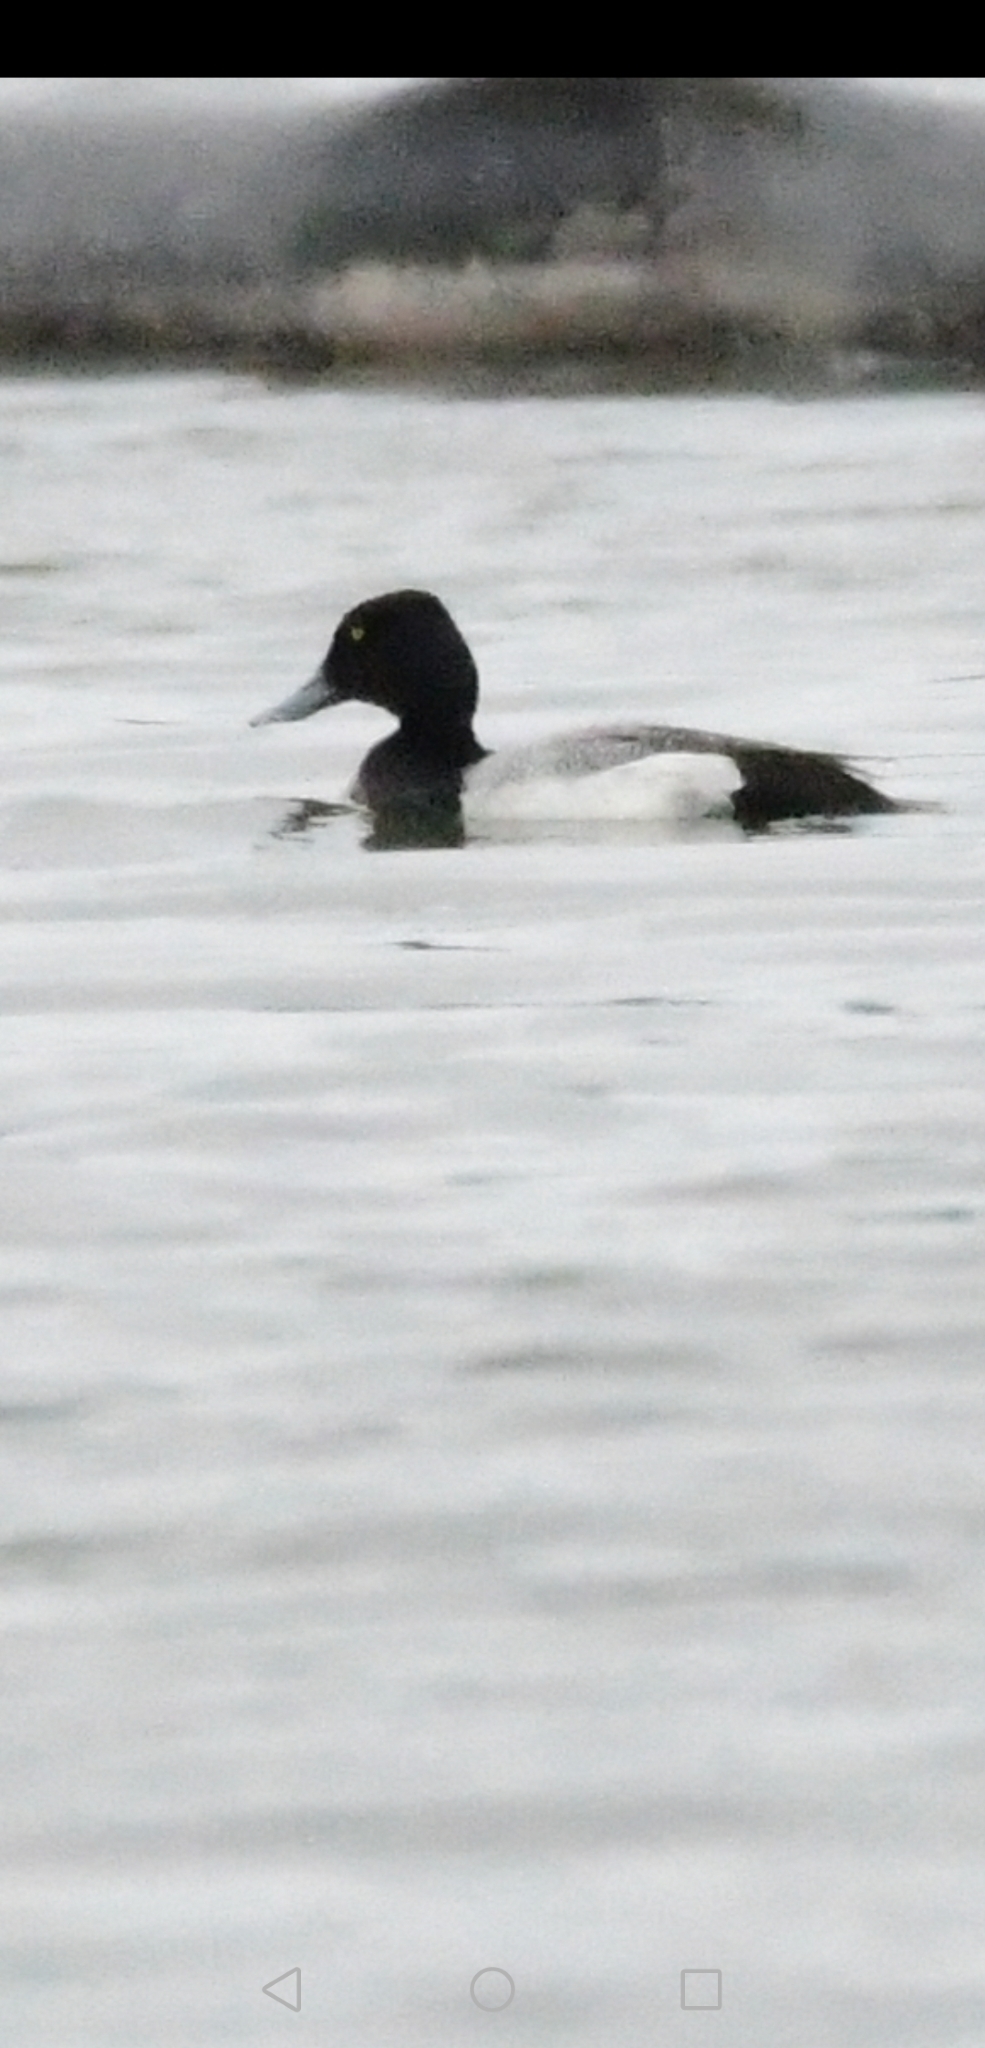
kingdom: Animalia
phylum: Chordata
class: Aves
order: Anseriformes
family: Anatidae
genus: Aythya
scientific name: Aythya marila
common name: Greater scaup
